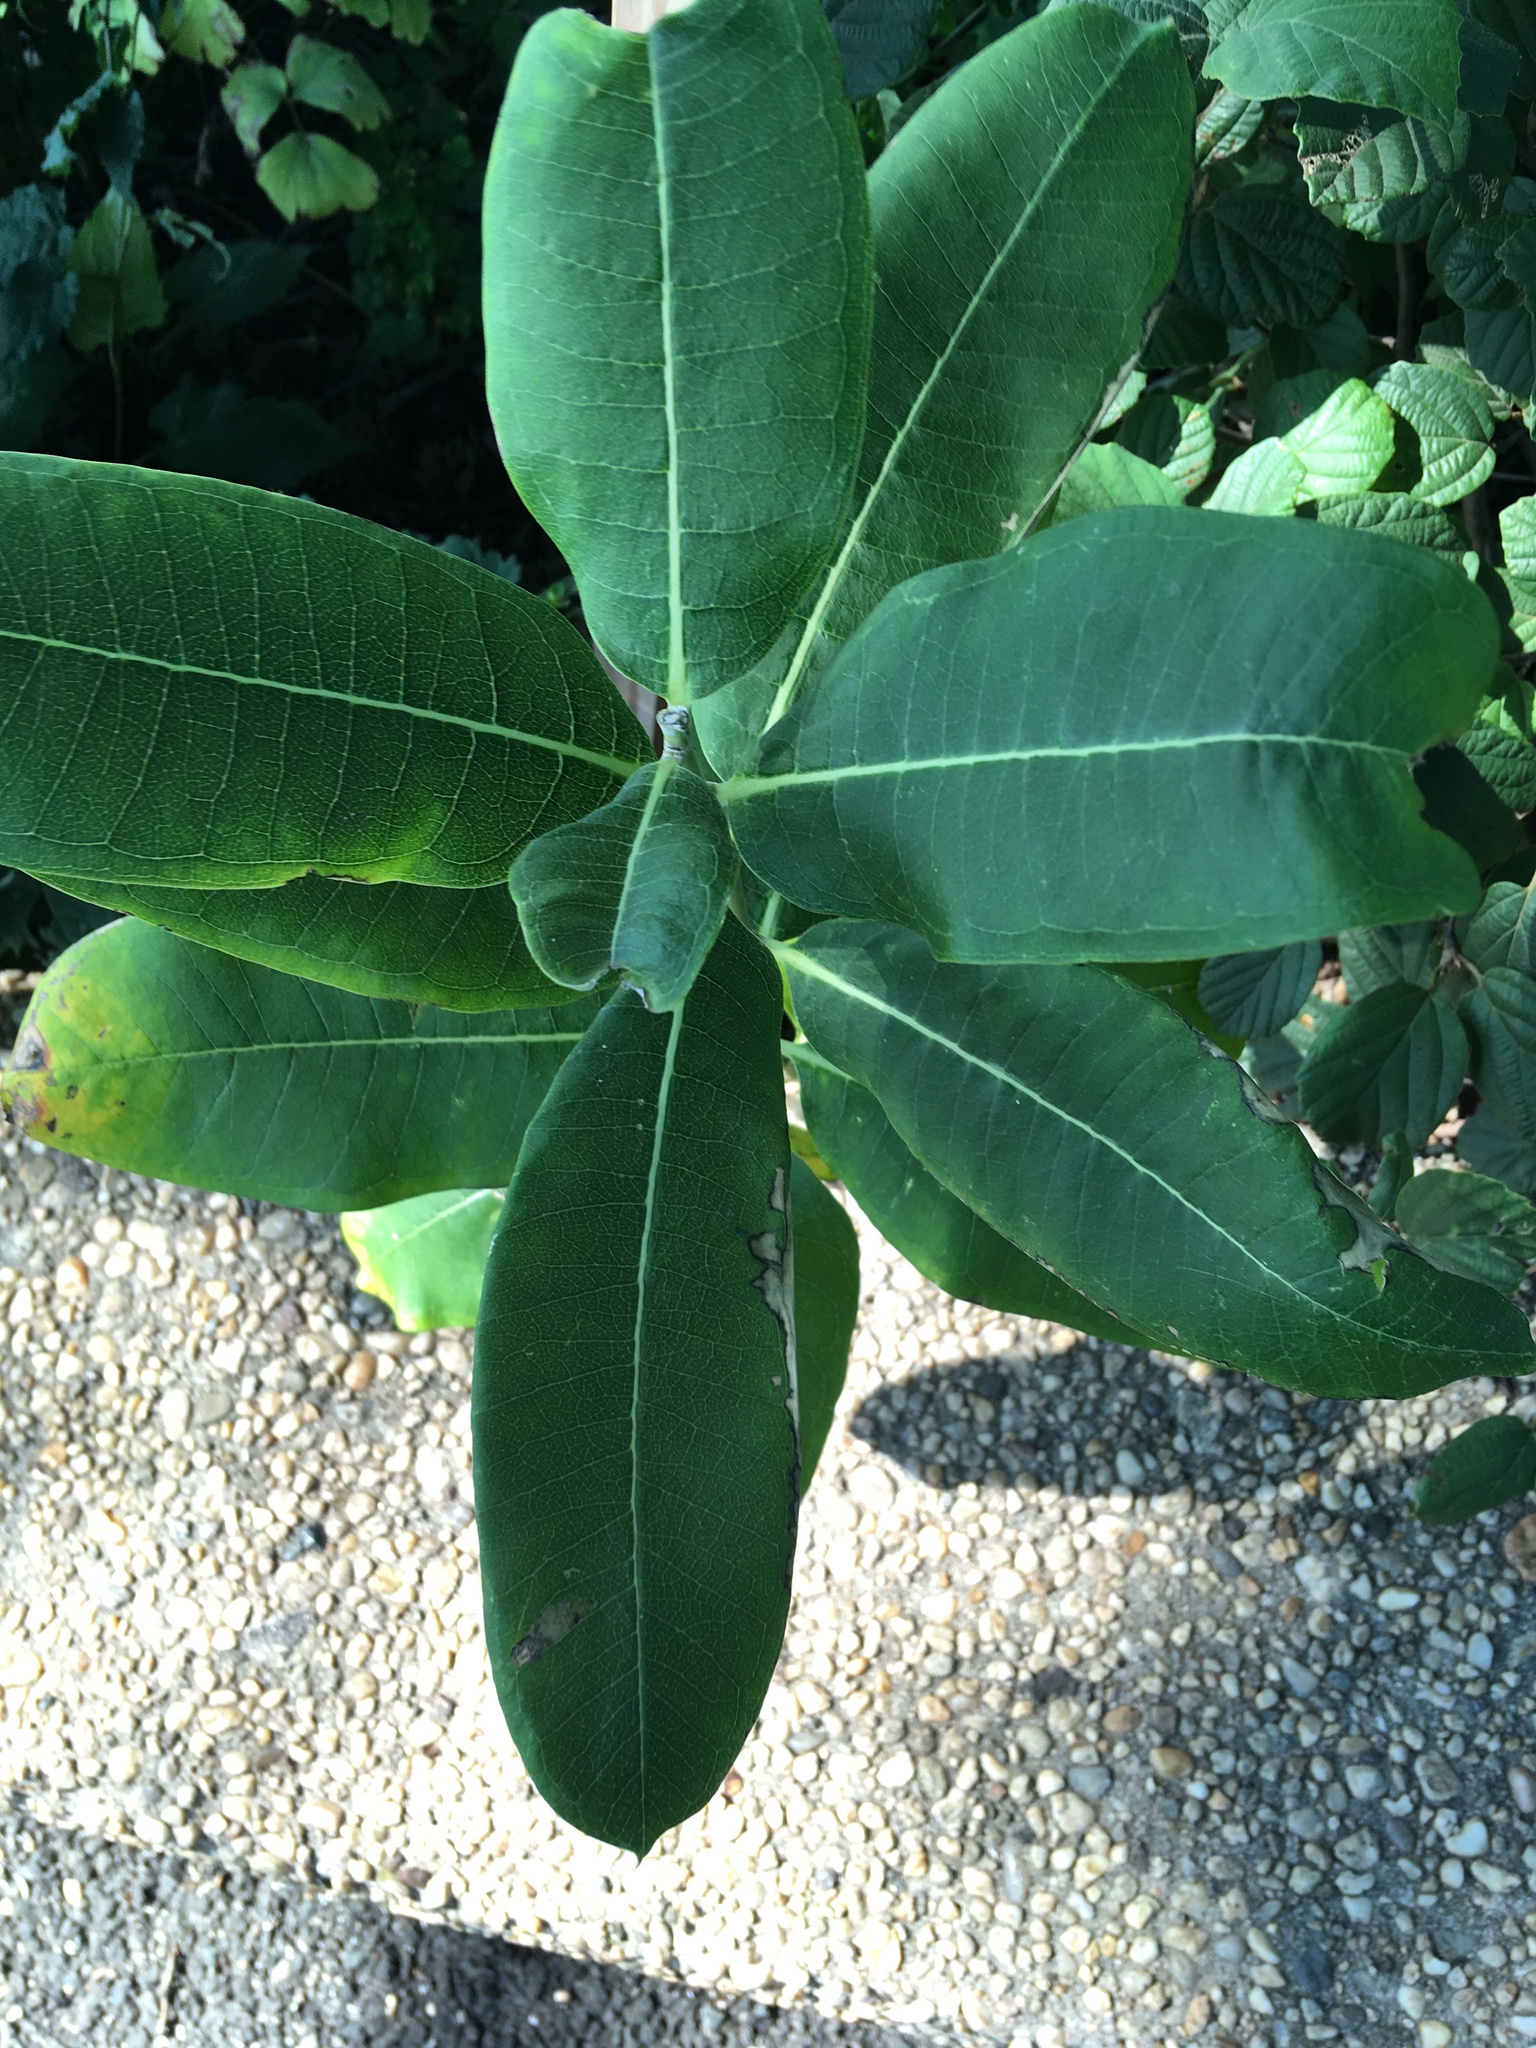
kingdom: Plantae
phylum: Tracheophyta
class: Magnoliopsida
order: Gentianales
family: Apocynaceae
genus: Asclepias
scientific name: Asclepias syriaca
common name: Common milkweed
